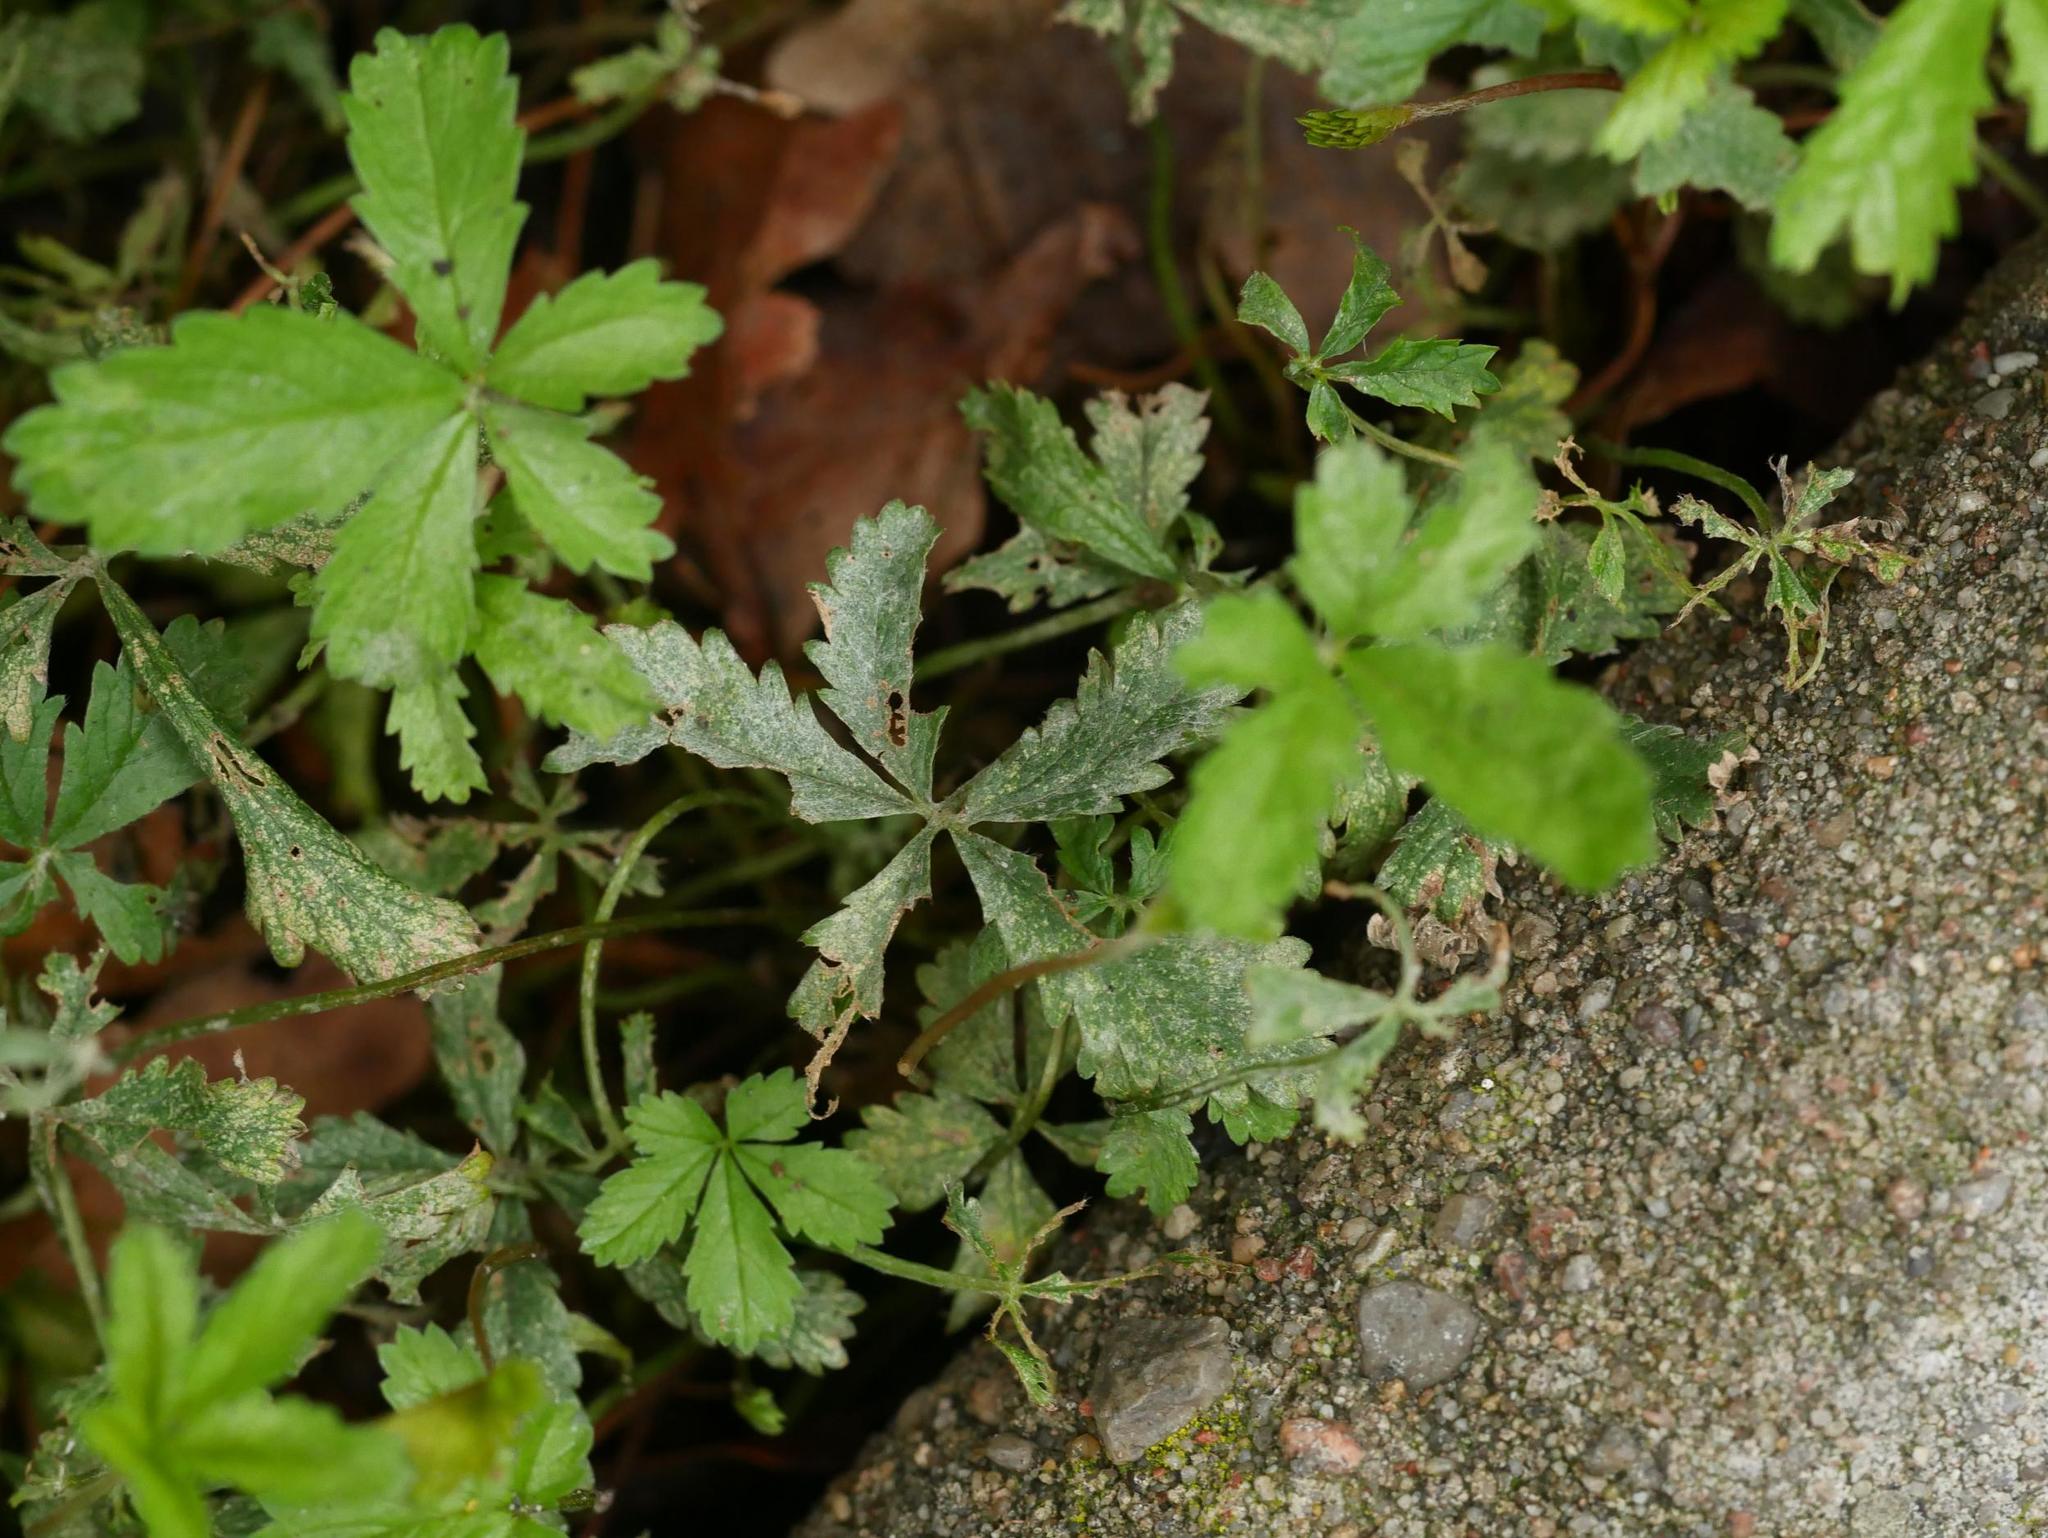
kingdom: Fungi
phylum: Ascomycota
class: Leotiomycetes
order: Helotiales
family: Erysiphaceae
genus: Podosphaera
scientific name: Podosphaera aphanis
